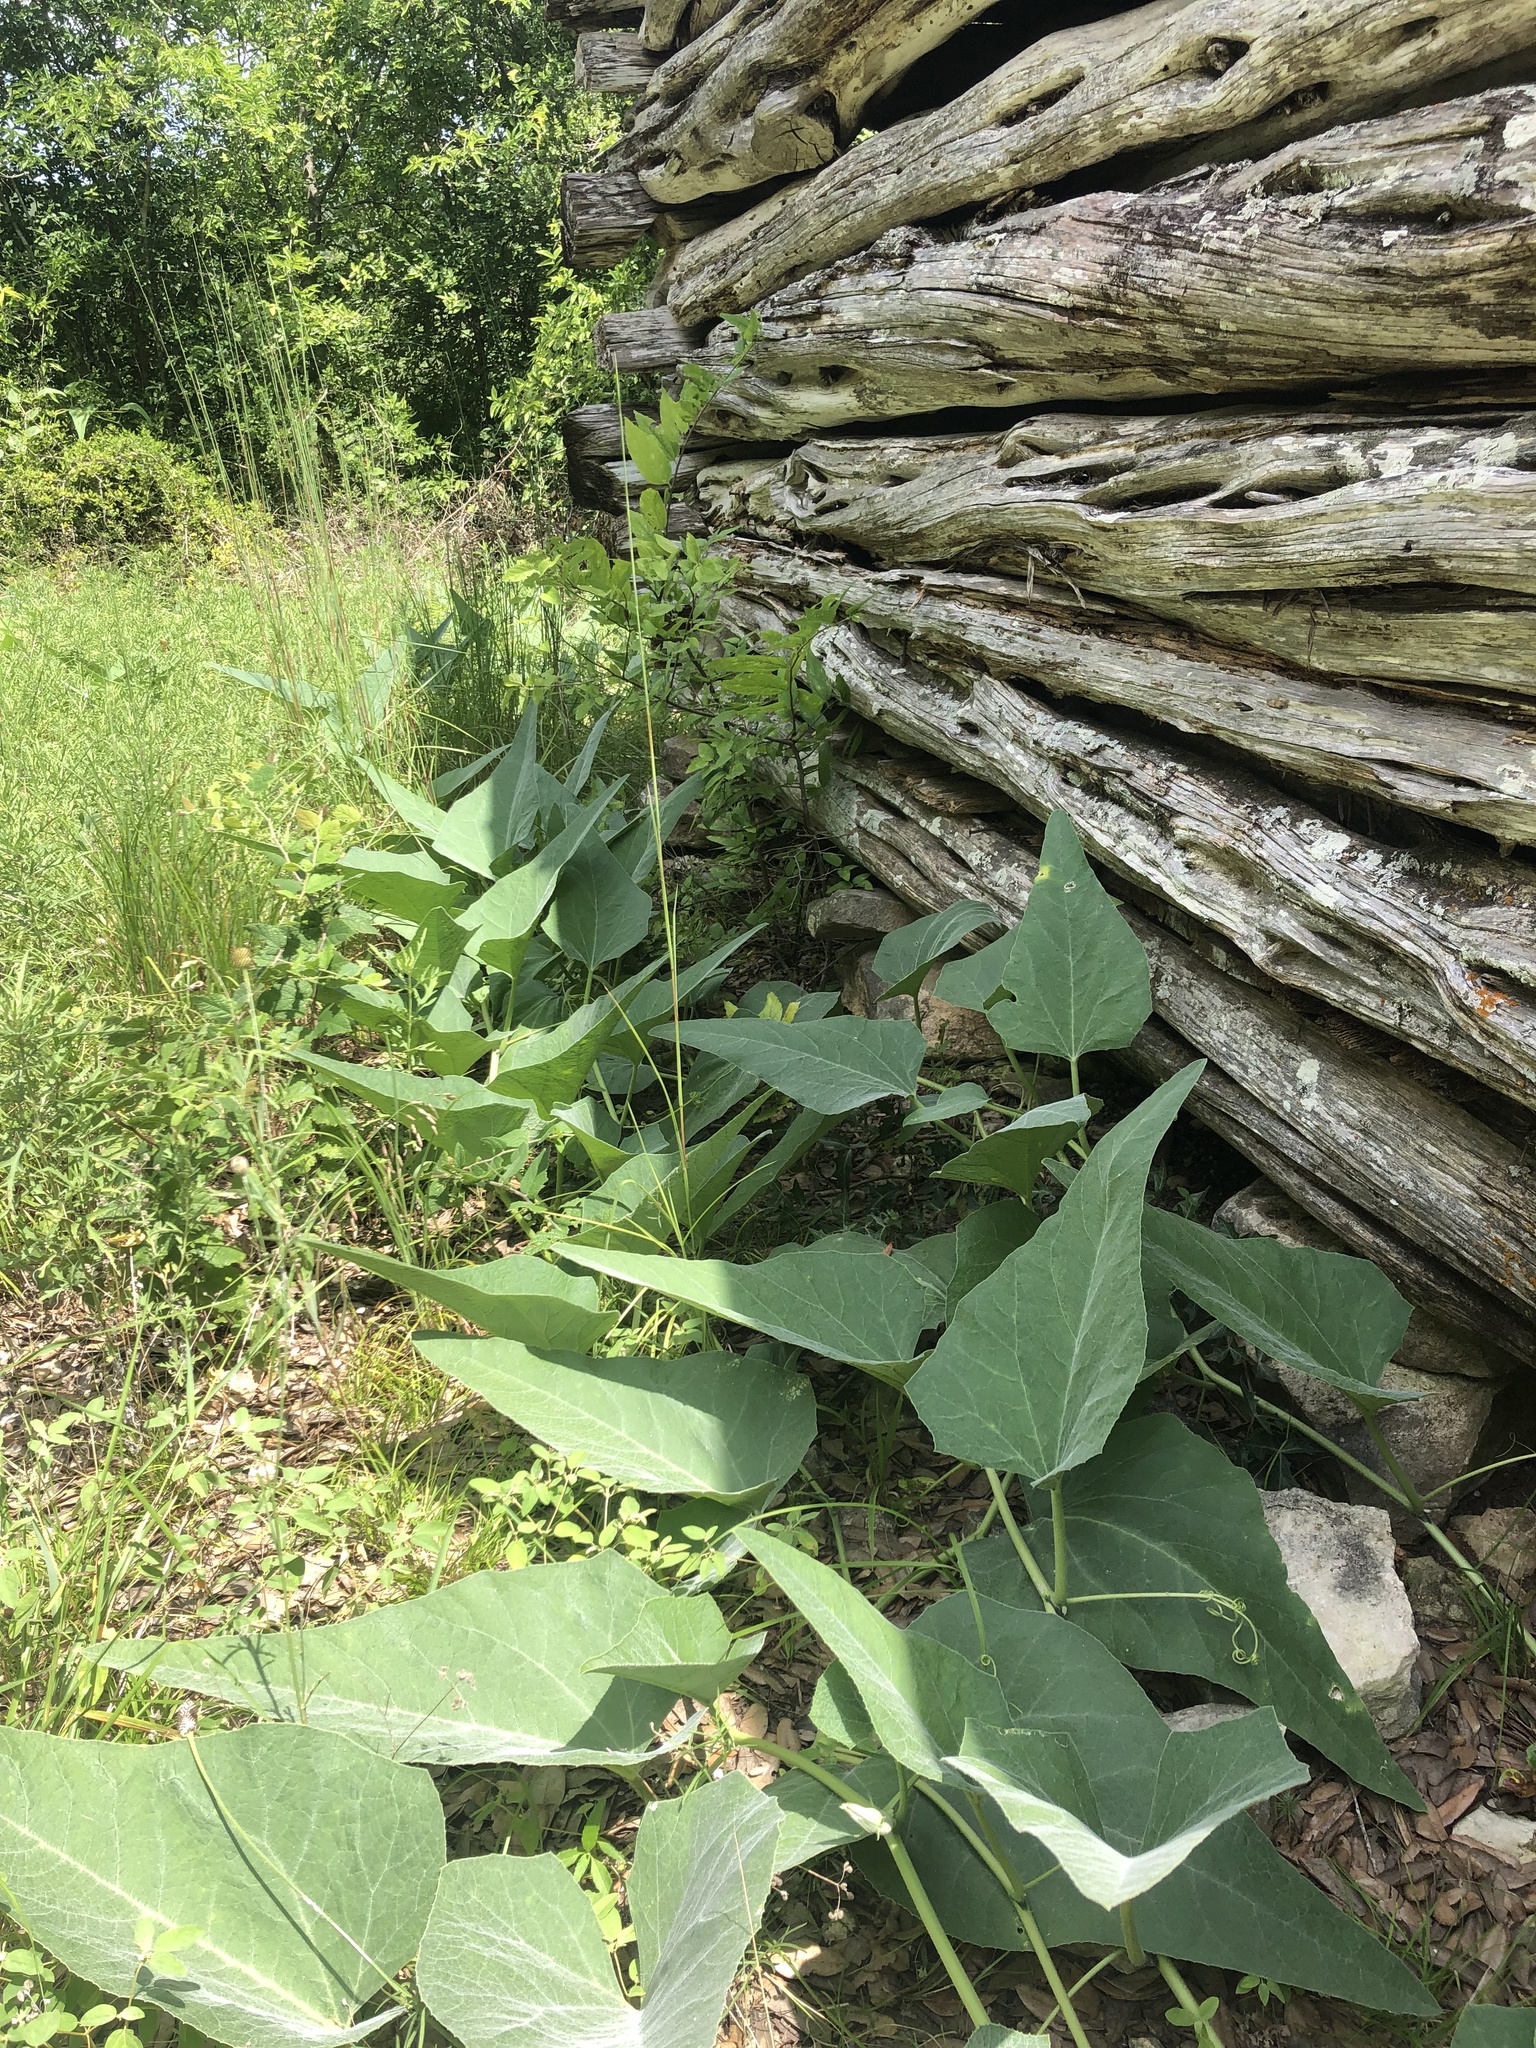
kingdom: Plantae
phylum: Tracheophyta
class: Magnoliopsida
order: Cucurbitales
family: Cucurbitaceae
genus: Cucurbita
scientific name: Cucurbita foetidissima
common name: Buffalo gourd
